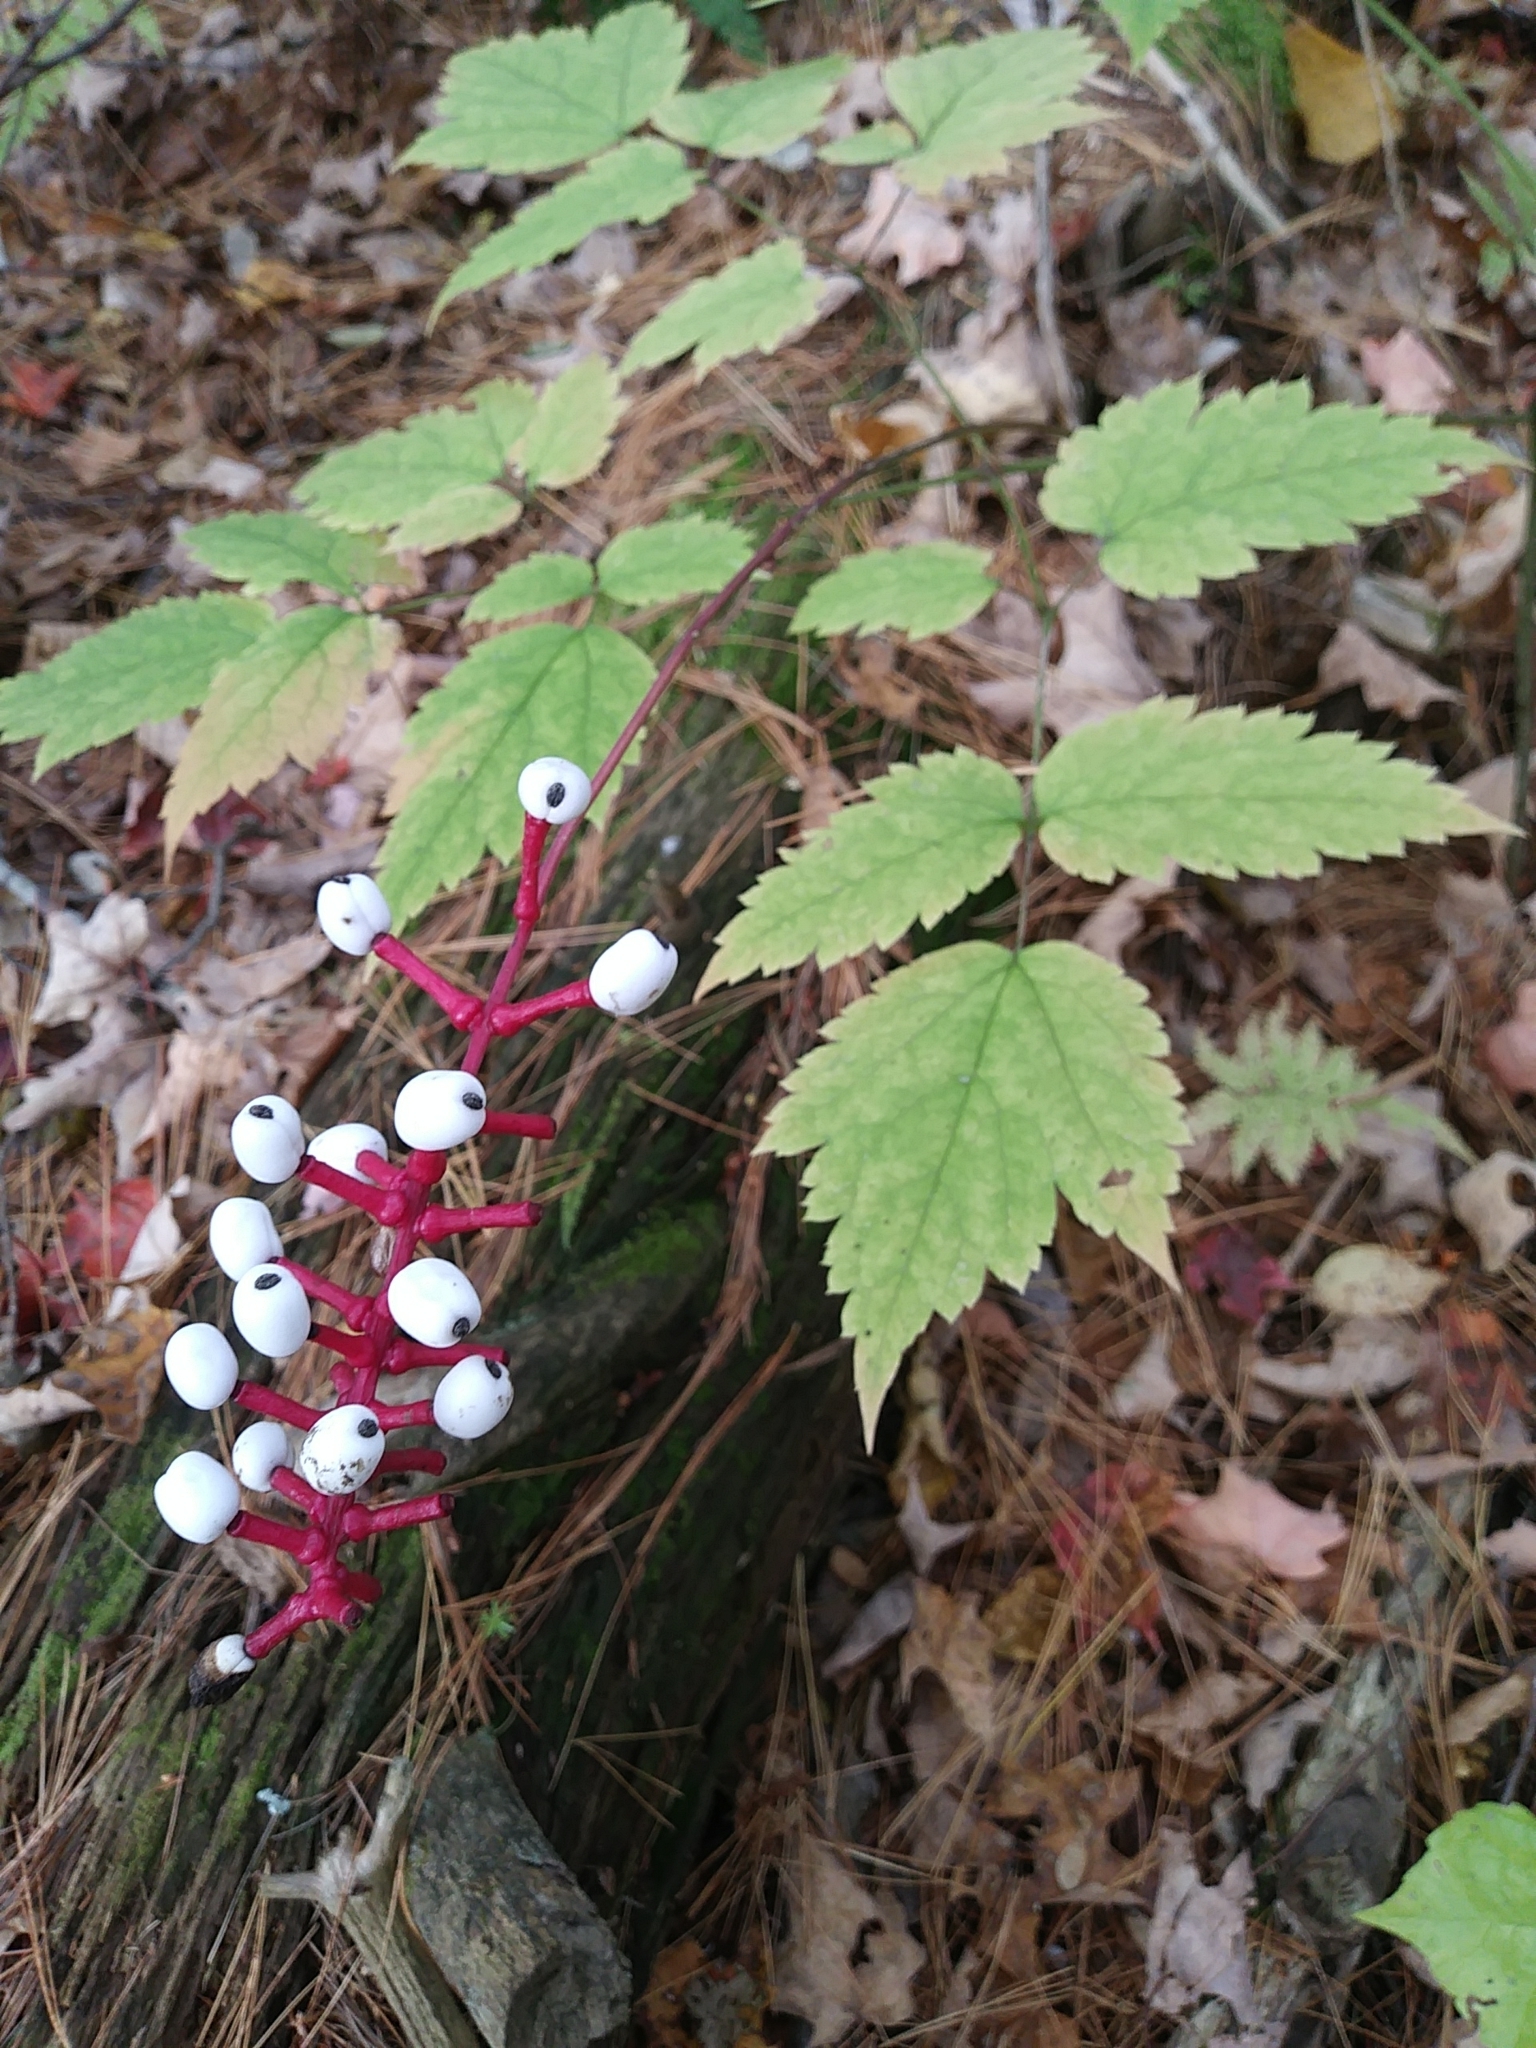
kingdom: Plantae
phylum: Tracheophyta
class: Magnoliopsida
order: Ranunculales
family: Ranunculaceae
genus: Actaea
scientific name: Actaea pachypoda
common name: Doll's-eyes
